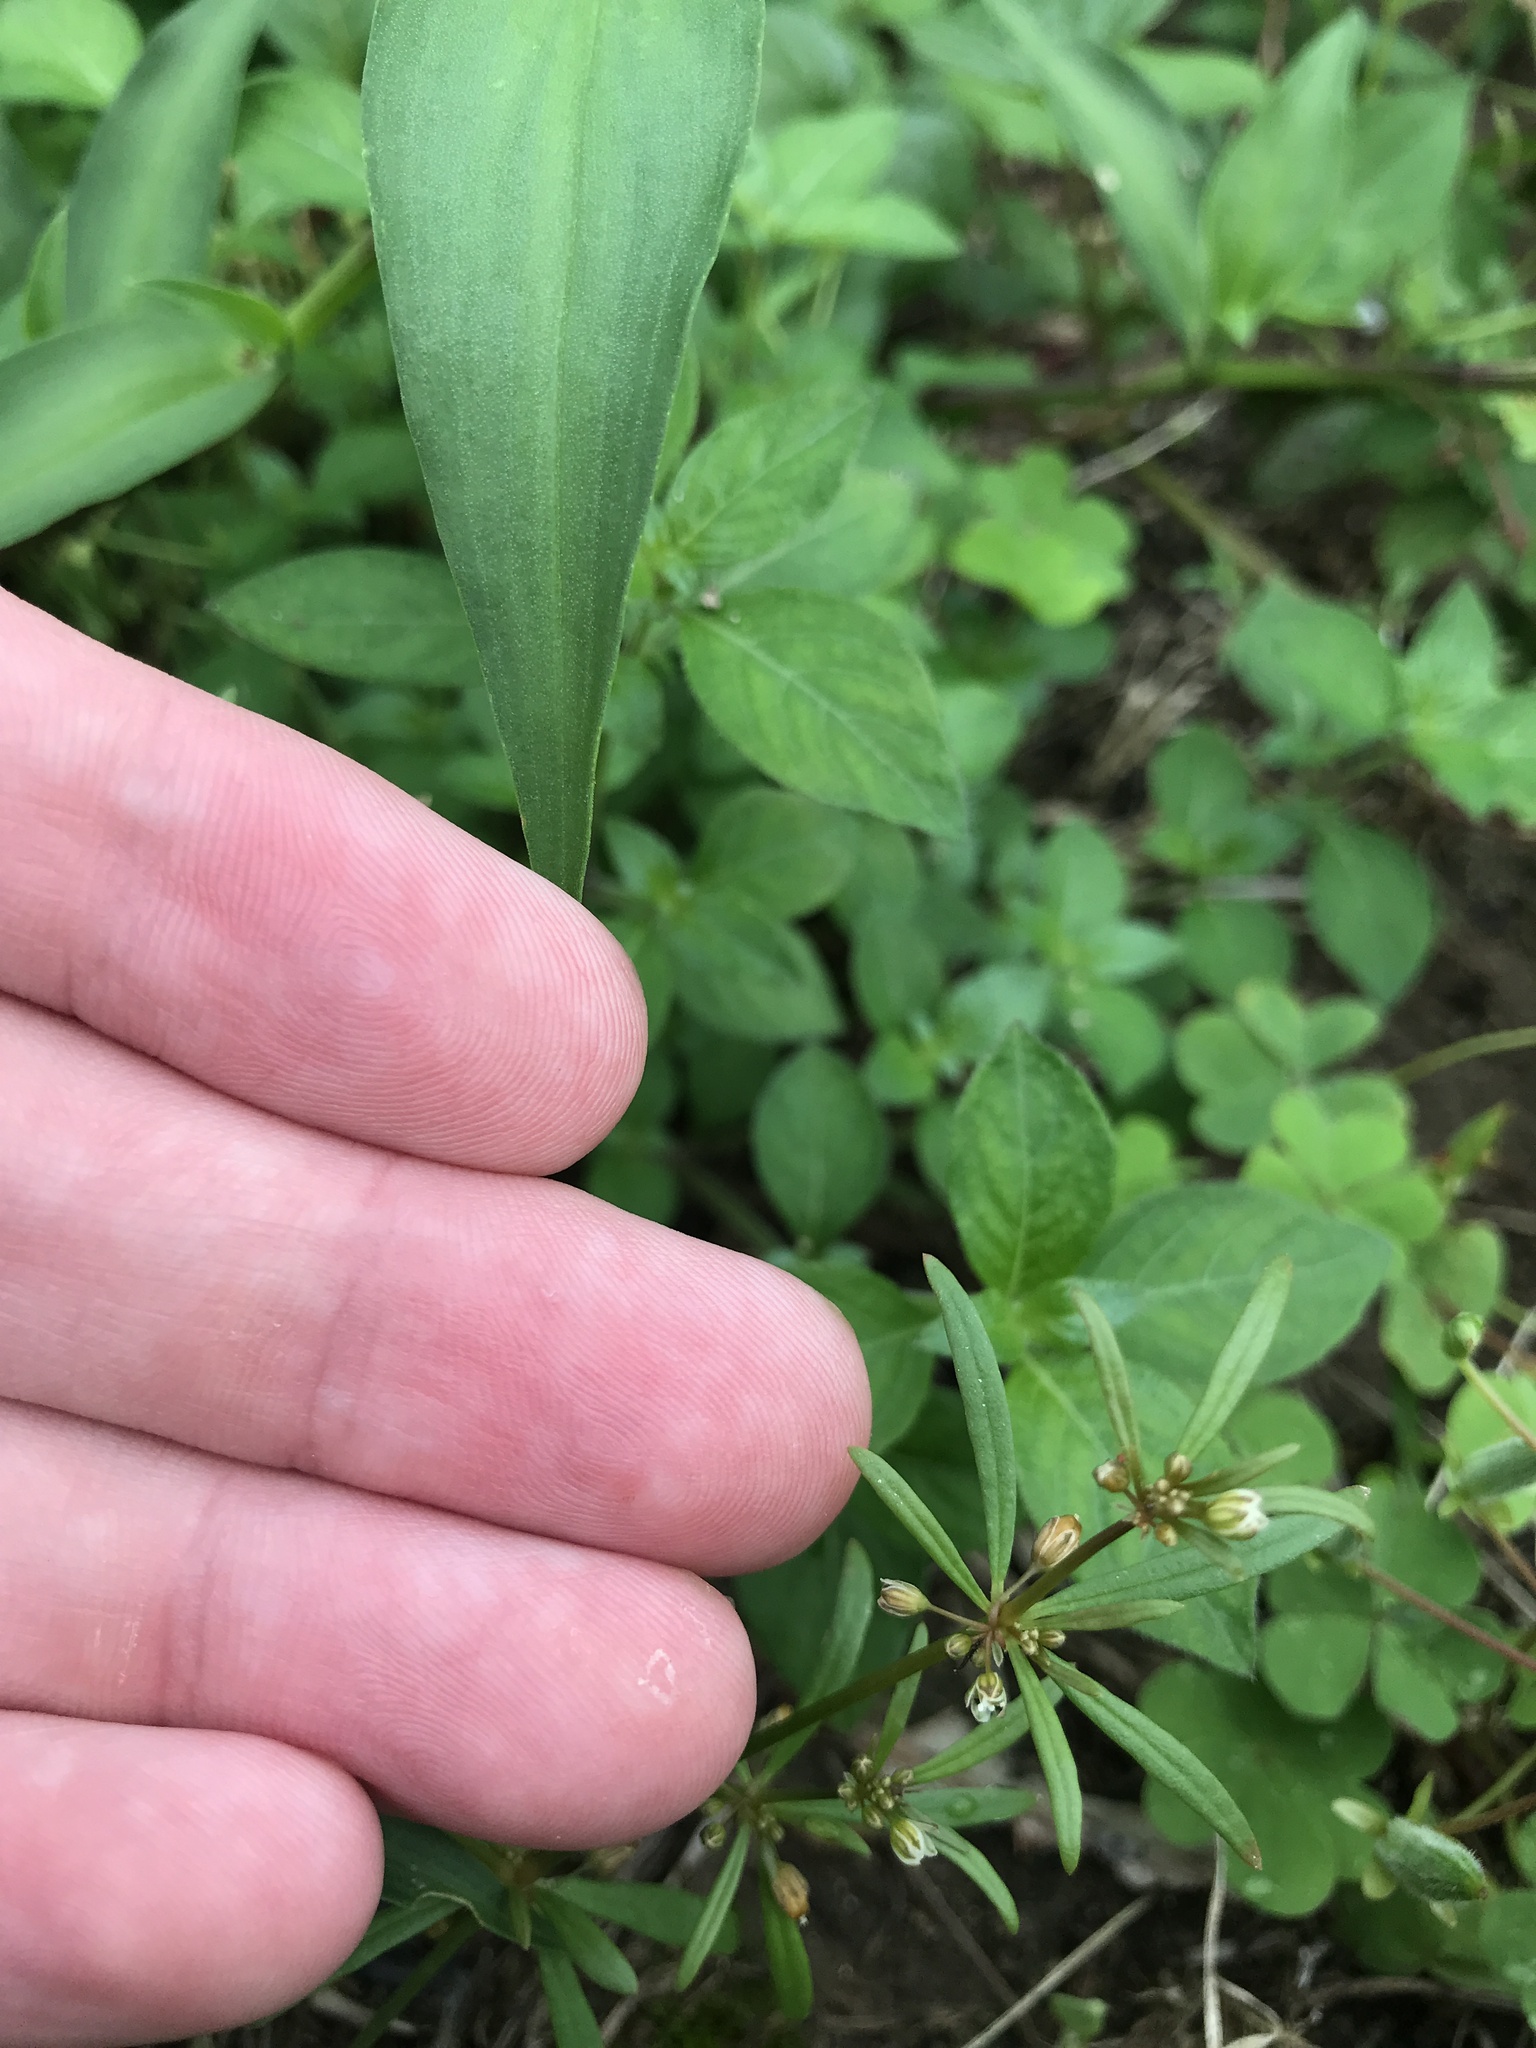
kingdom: Plantae
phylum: Tracheophyta
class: Magnoliopsida
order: Caryophyllales
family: Molluginaceae
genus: Mollugo
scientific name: Mollugo verticillata
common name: Green carpetweed
